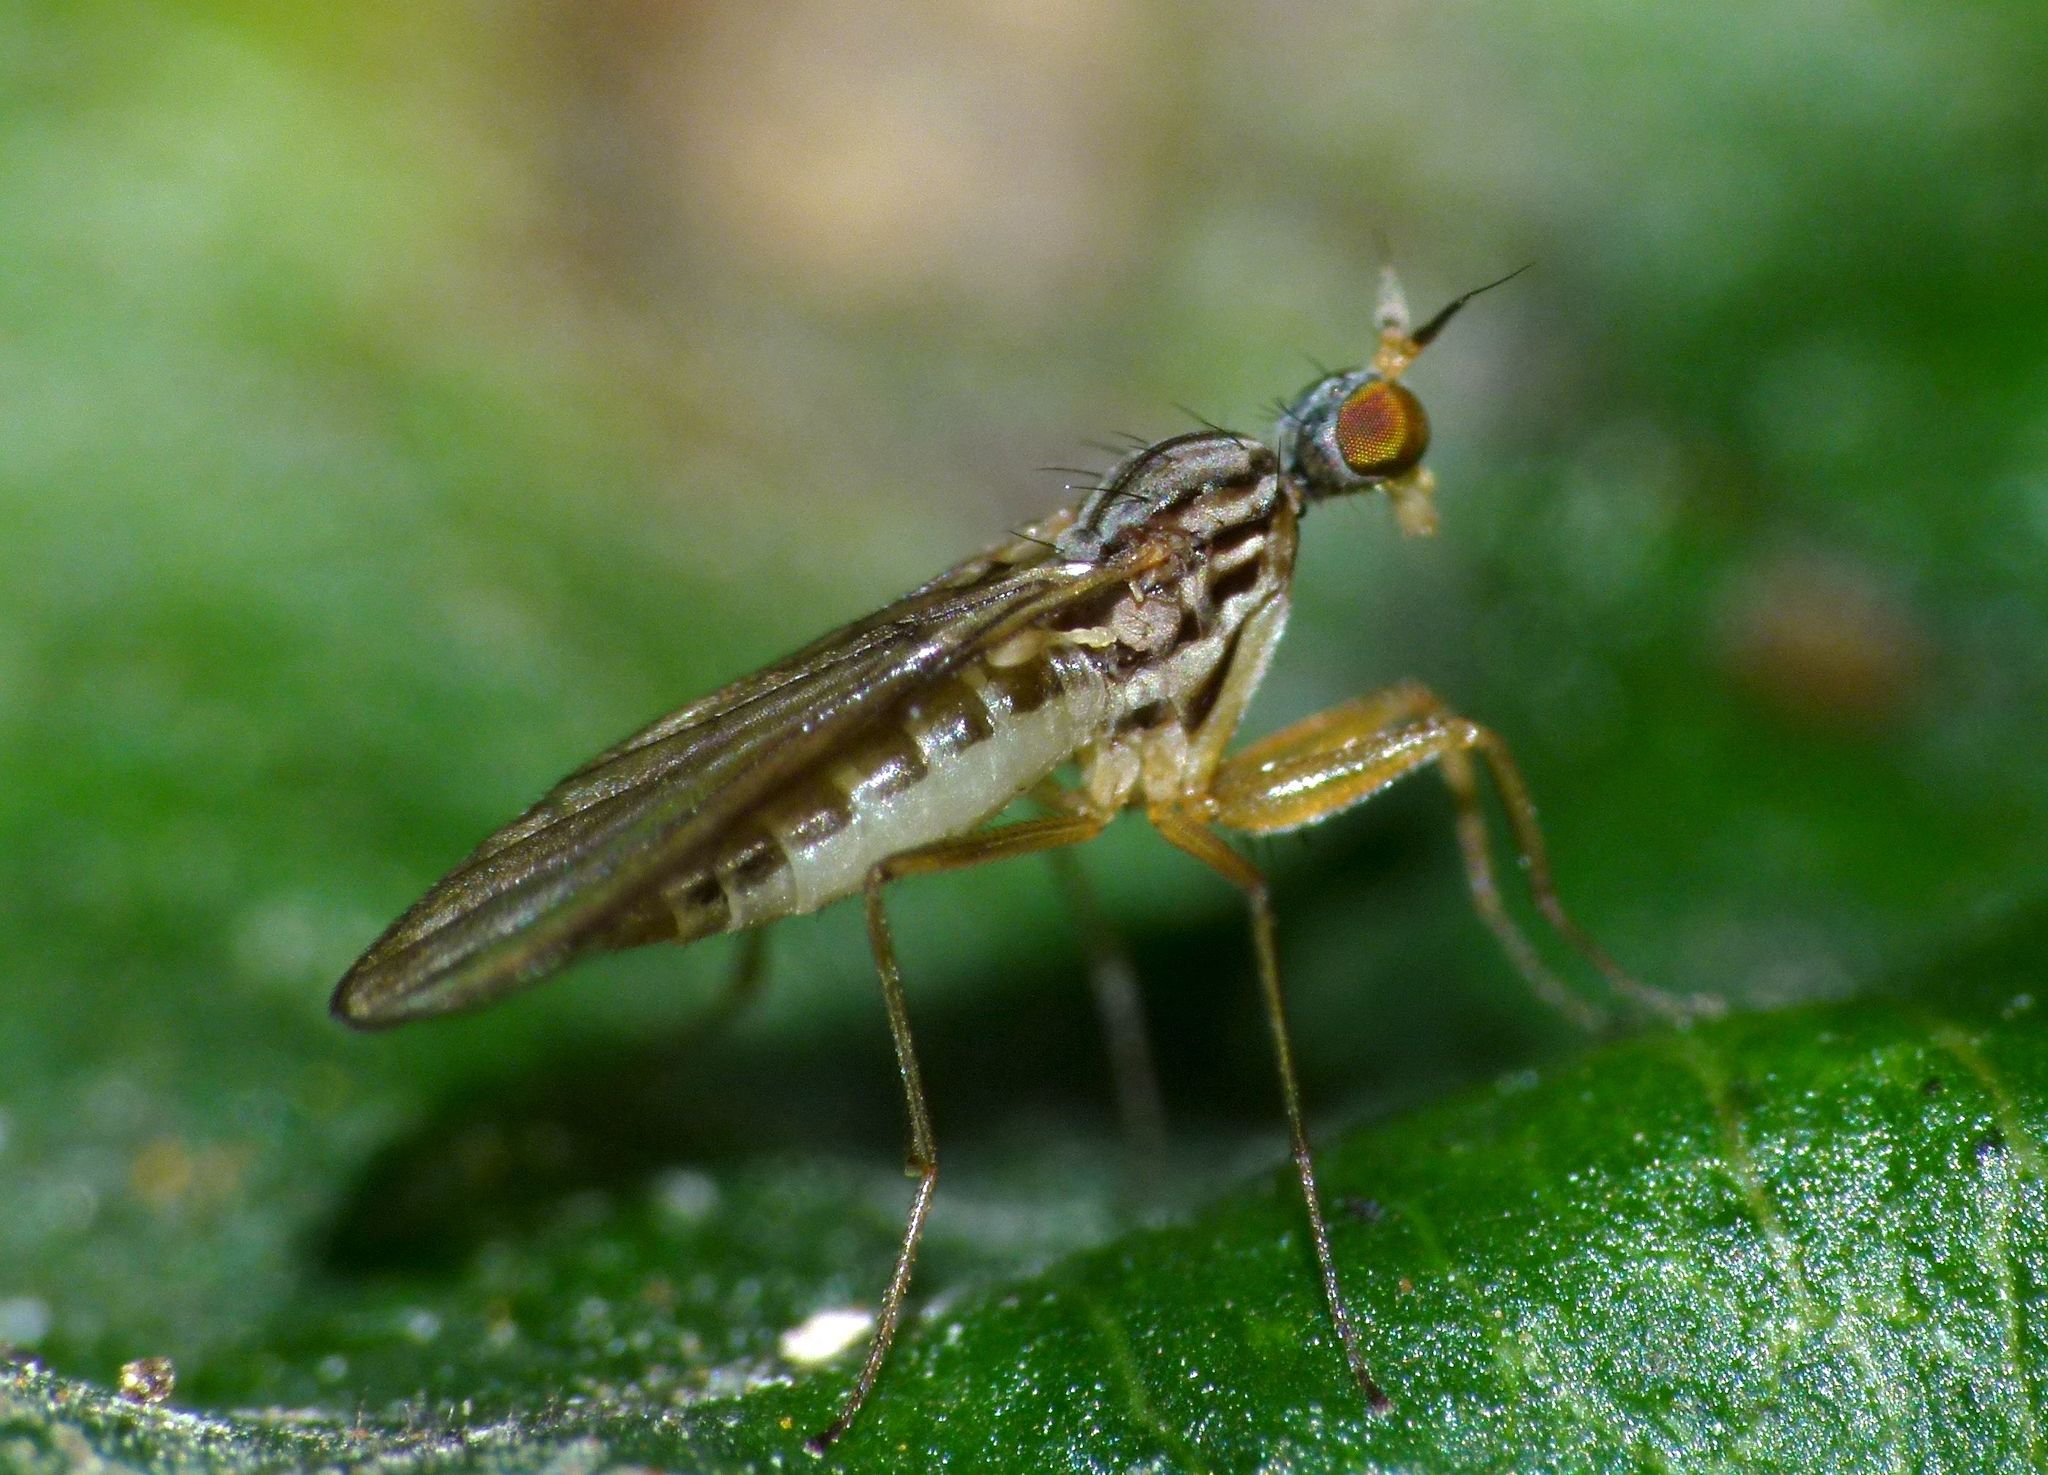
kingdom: Animalia
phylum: Arthropoda
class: Insecta
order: Diptera
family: Empididae
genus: Chelipoda
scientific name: Chelipoda aritarita
